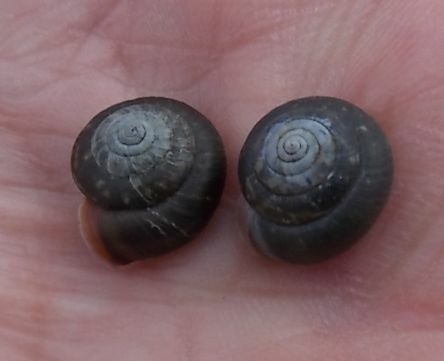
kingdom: Animalia
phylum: Mollusca
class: Gastropoda
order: Stylommatophora
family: Hygromiidae
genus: Trochulus
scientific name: Trochulus striolatus
